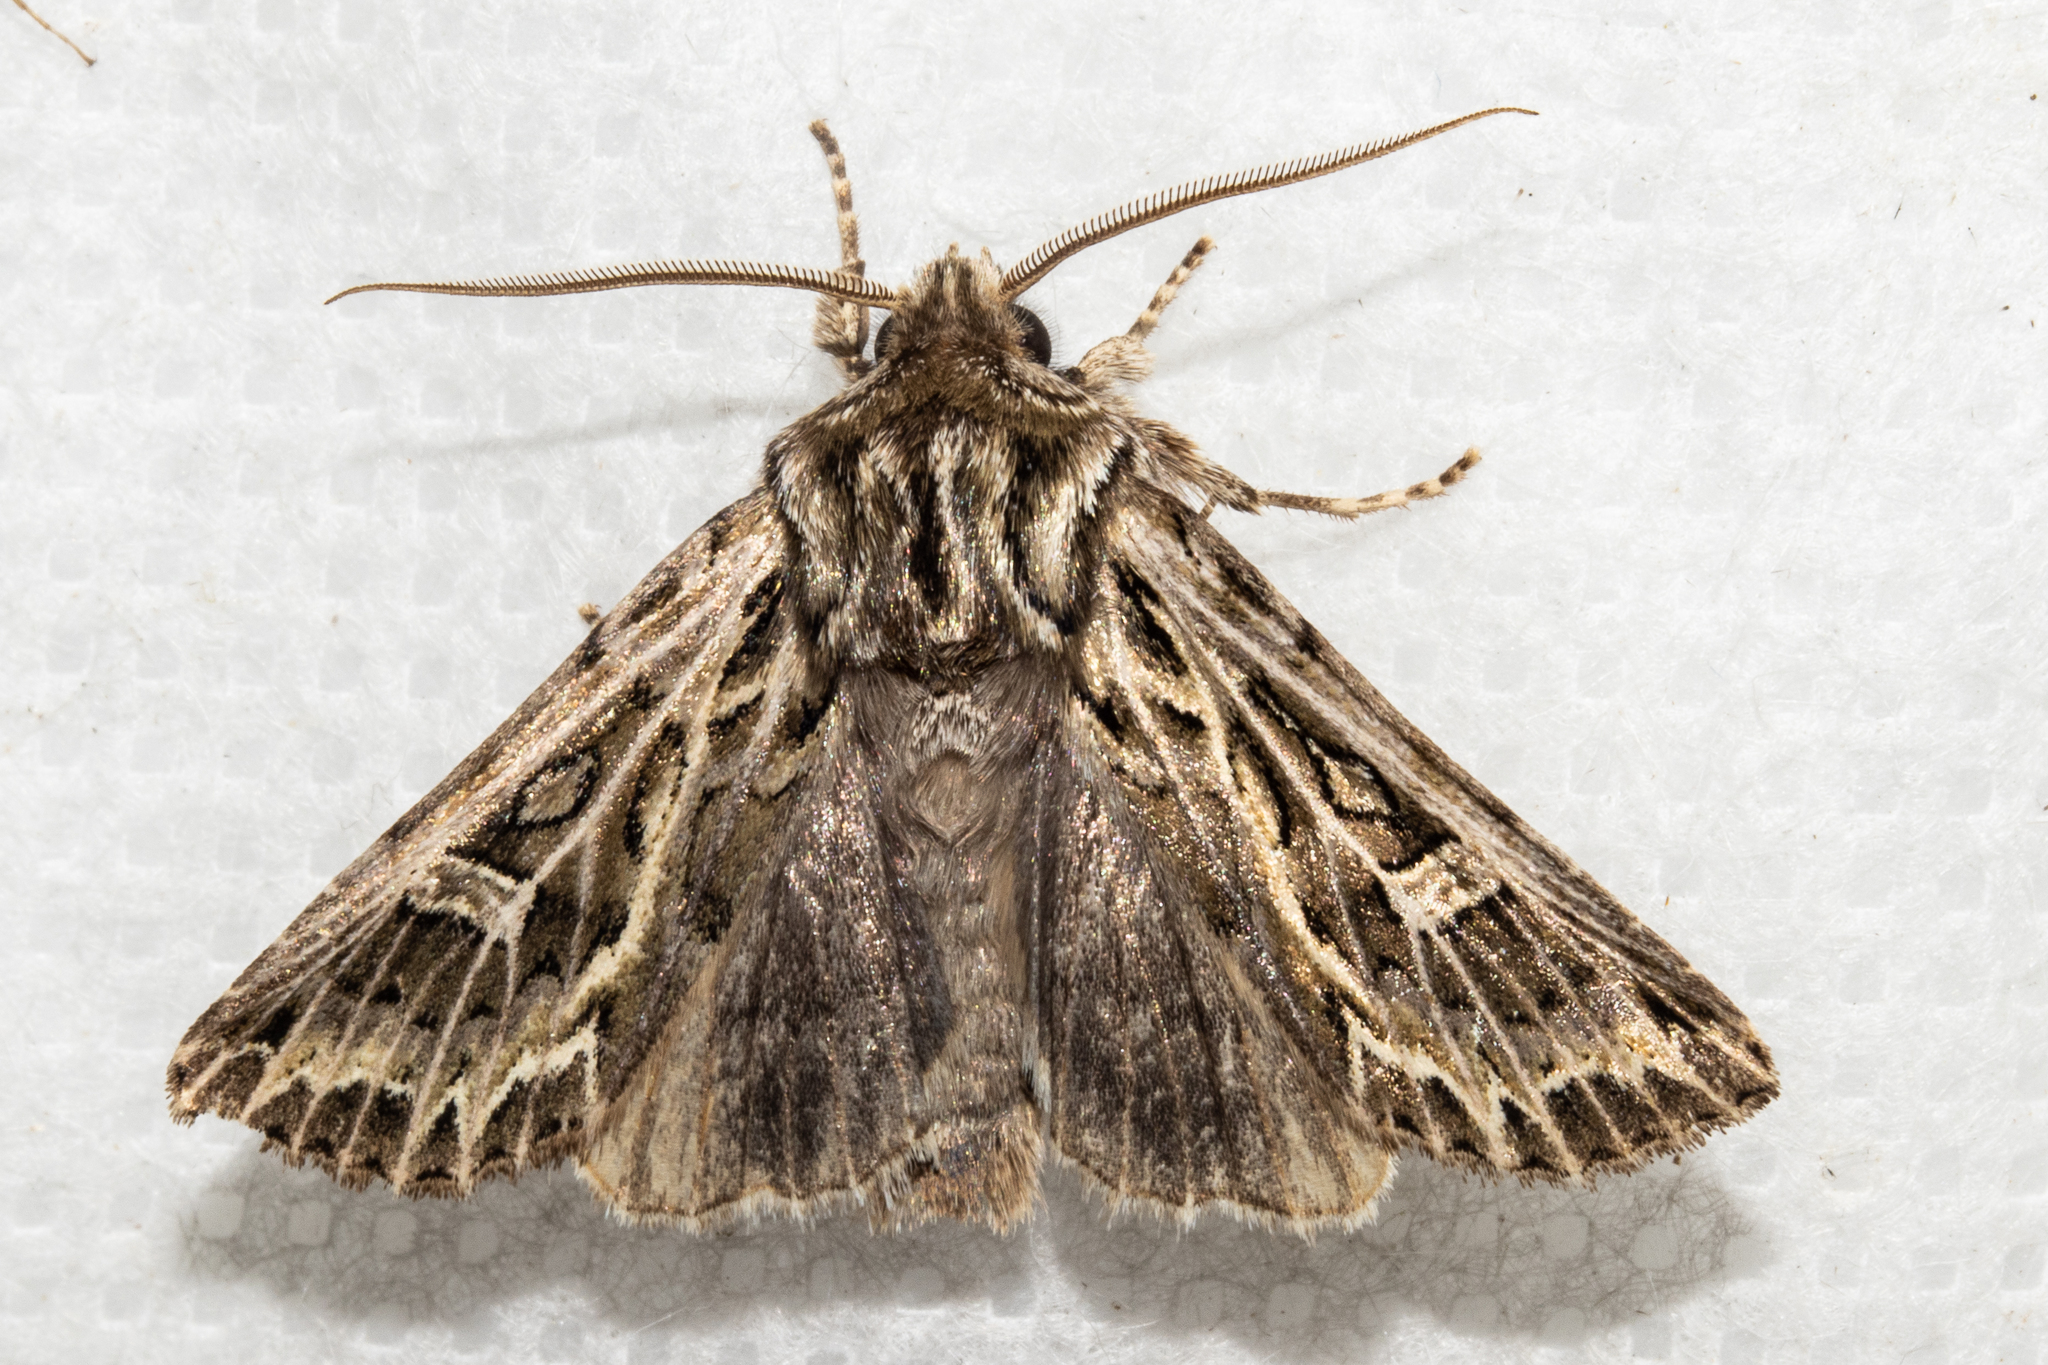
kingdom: Animalia
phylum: Arthropoda
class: Insecta
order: Lepidoptera
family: Noctuidae
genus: Ichneutica
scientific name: Ichneutica
